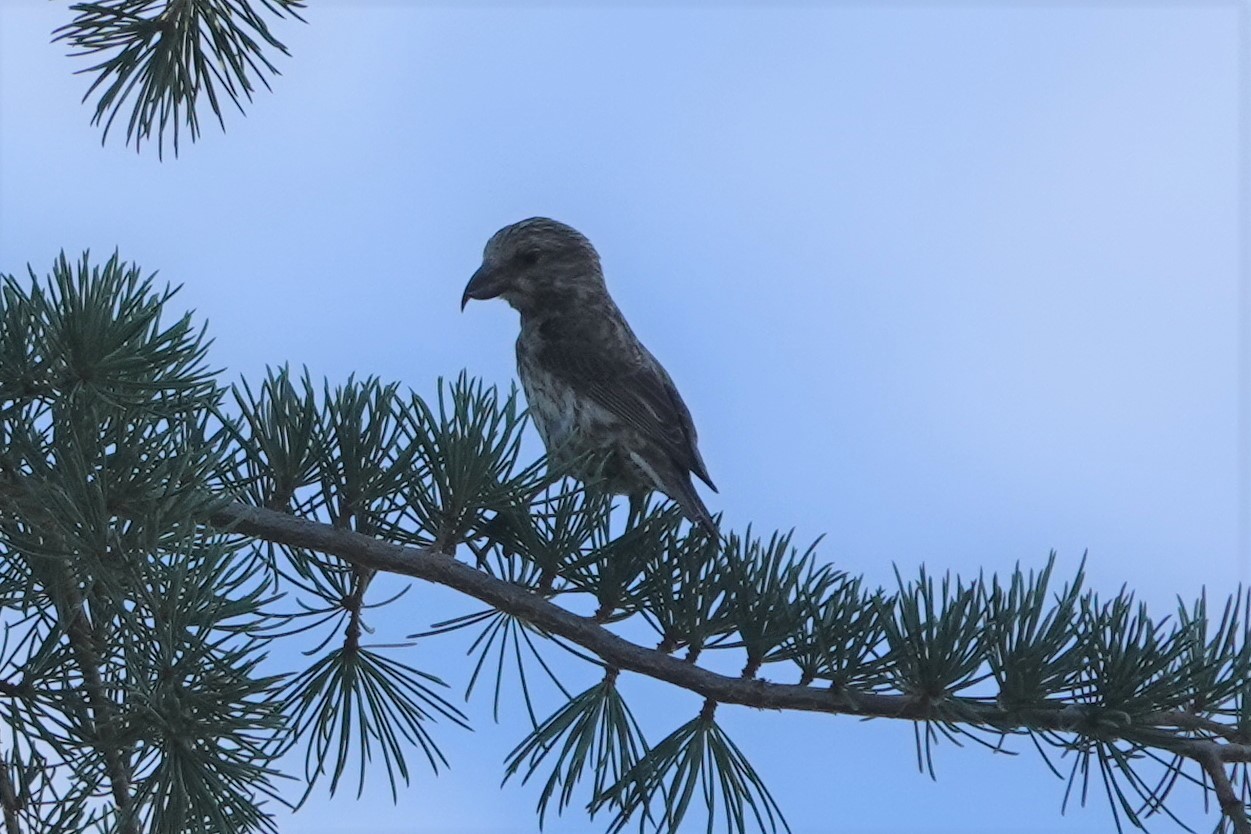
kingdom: Animalia
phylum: Chordata
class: Aves
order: Passeriformes
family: Fringillidae
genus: Loxia
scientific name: Loxia curvirostra
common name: Red crossbill
